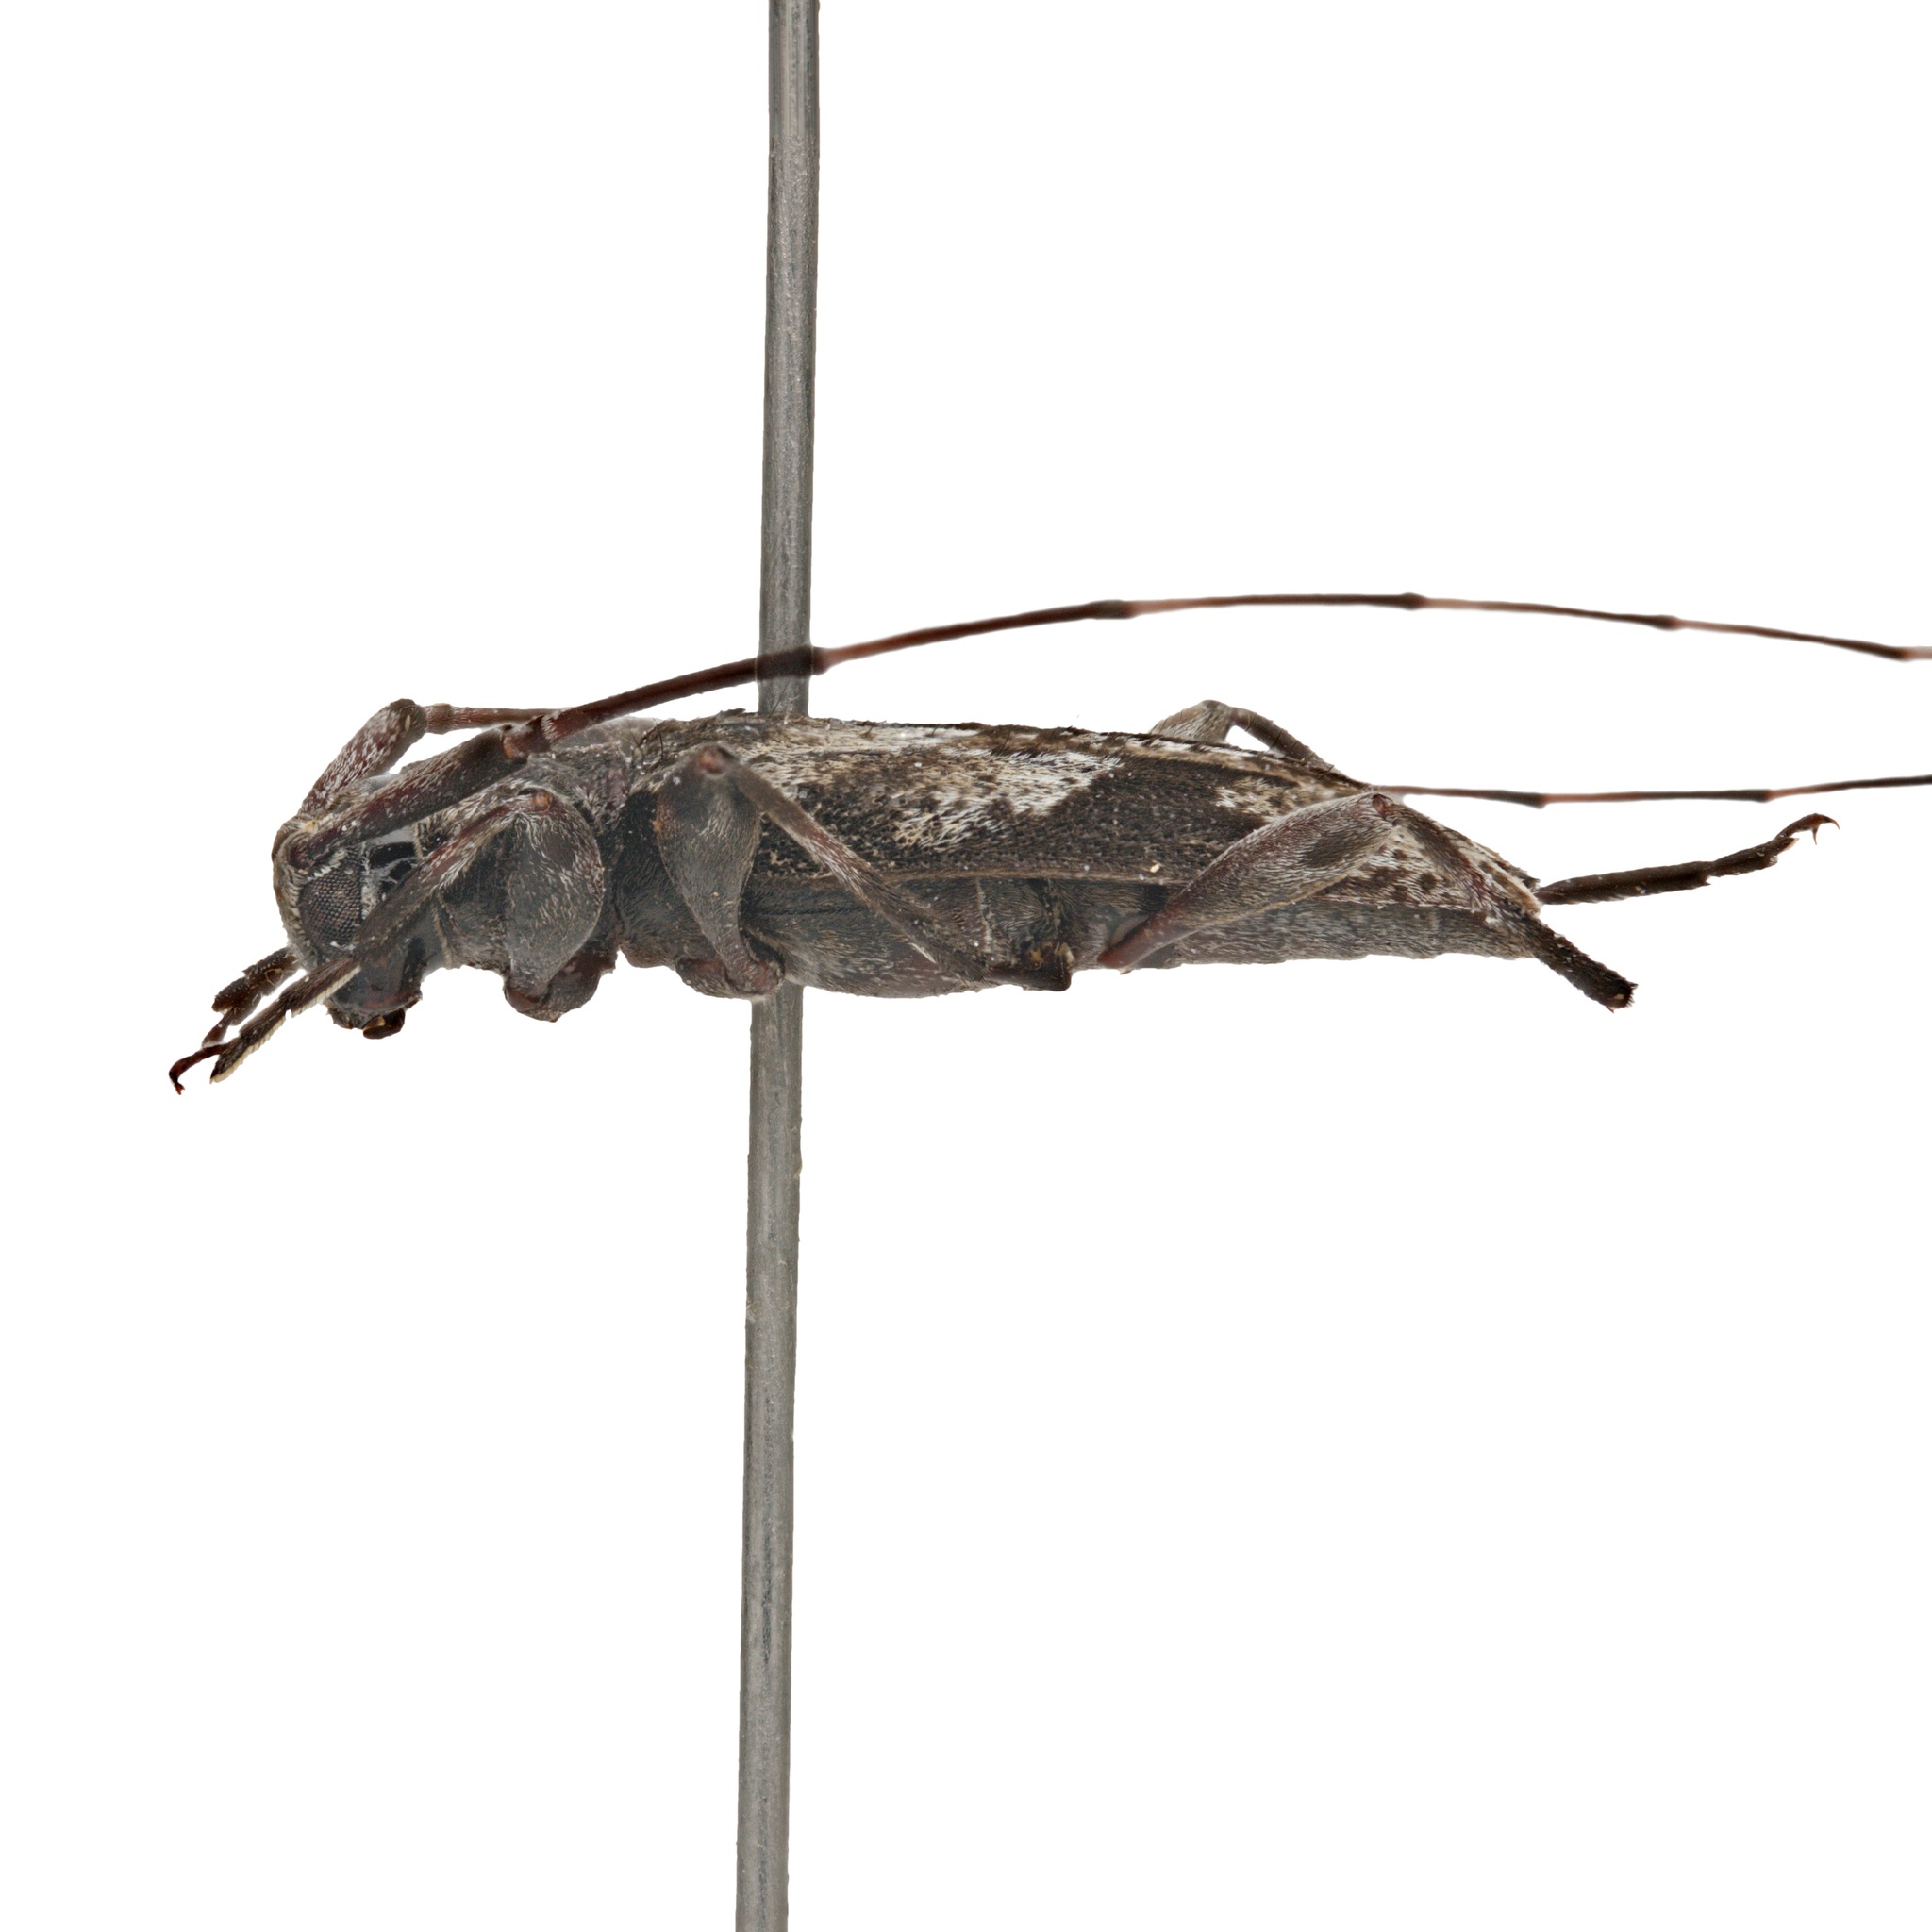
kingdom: Animalia
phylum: Arthropoda
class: Insecta
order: Coleoptera
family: Cerambycidae
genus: Eutrichillus
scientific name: Eutrichillus neomexicanus
